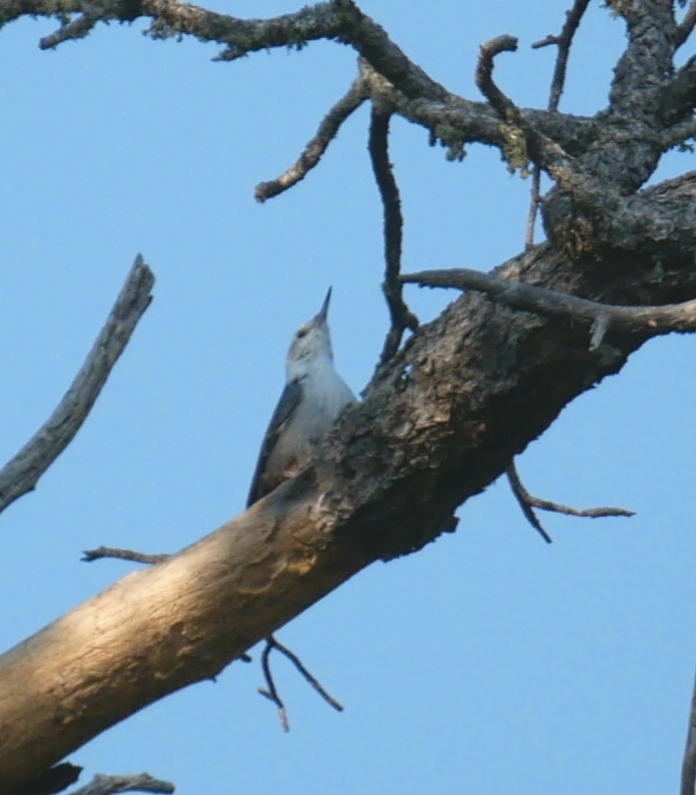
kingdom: Animalia
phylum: Chordata
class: Aves
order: Passeriformes
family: Sittidae
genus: Sitta
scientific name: Sitta pygmaea
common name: Pygmy nuthatch
